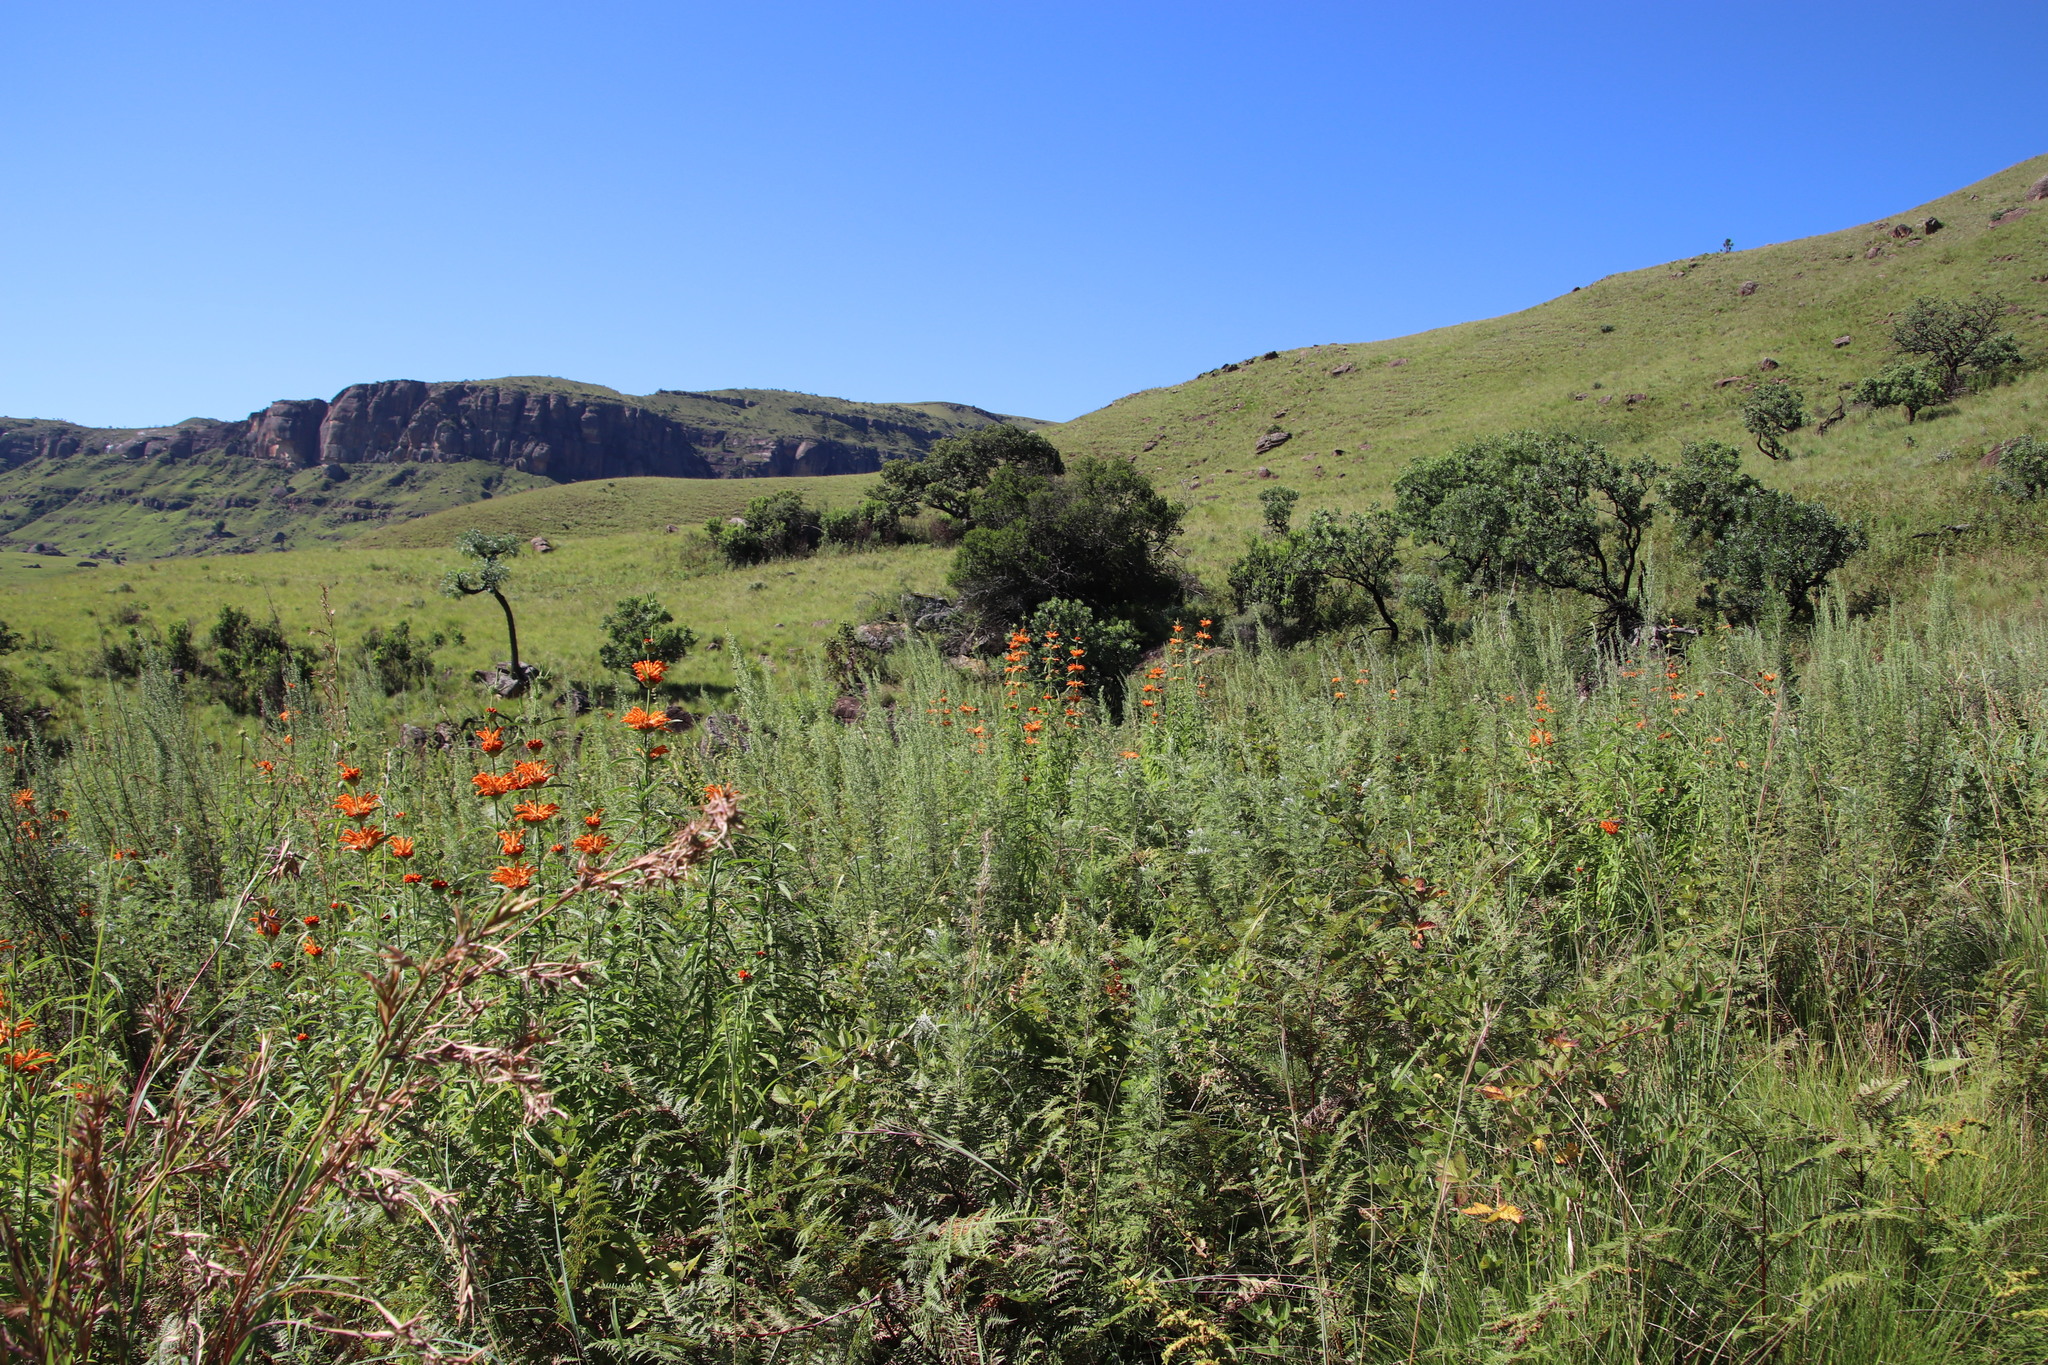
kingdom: Plantae
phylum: Tracheophyta
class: Magnoliopsida
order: Lamiales
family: Lamiaceae
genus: Leonotis
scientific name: Leonotis leonurus
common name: Lion's ear
